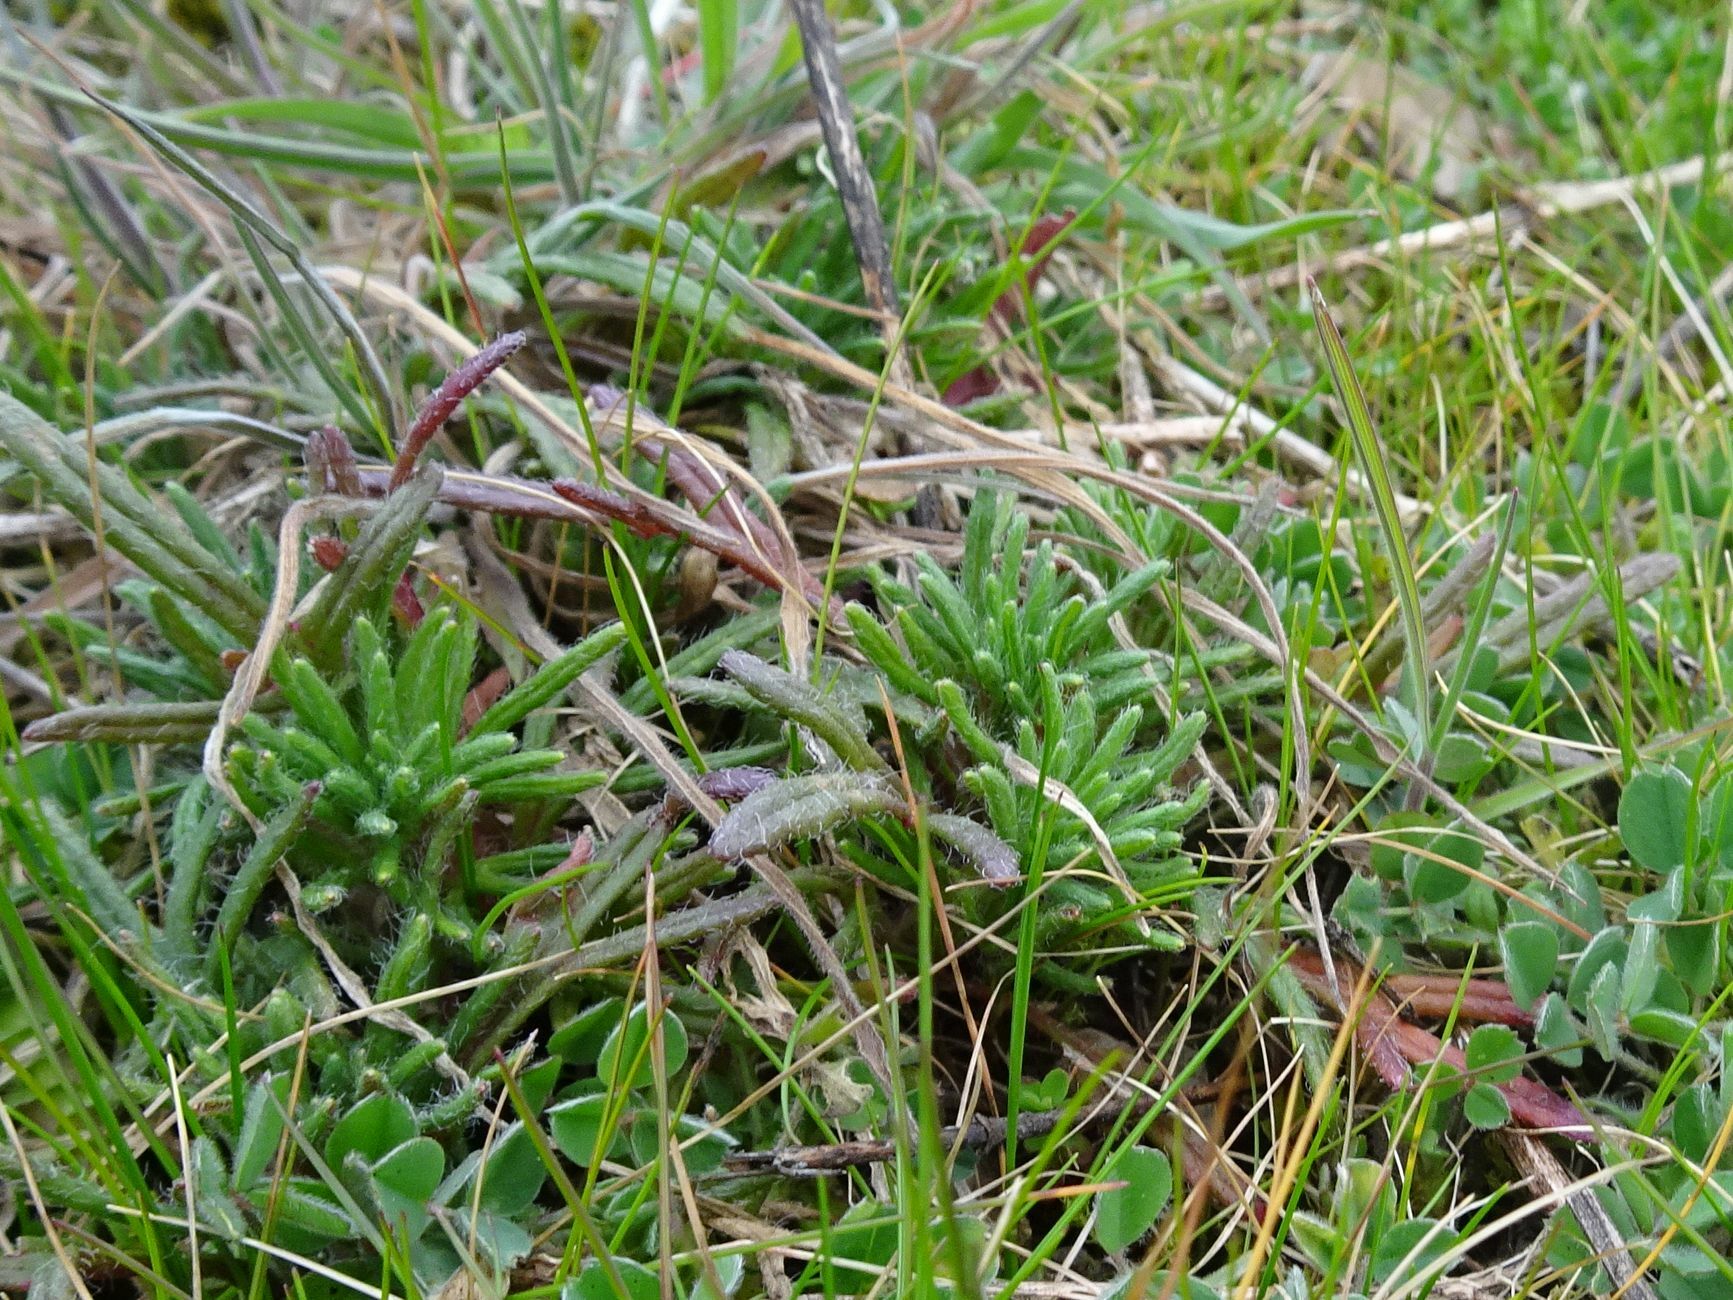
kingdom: Plantae
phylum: Tracheophyta
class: Magnoliopsida
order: Lamiales
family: Lamiaceae
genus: Ajuga
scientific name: Ajuga chamaepitys
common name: Ground-pine
